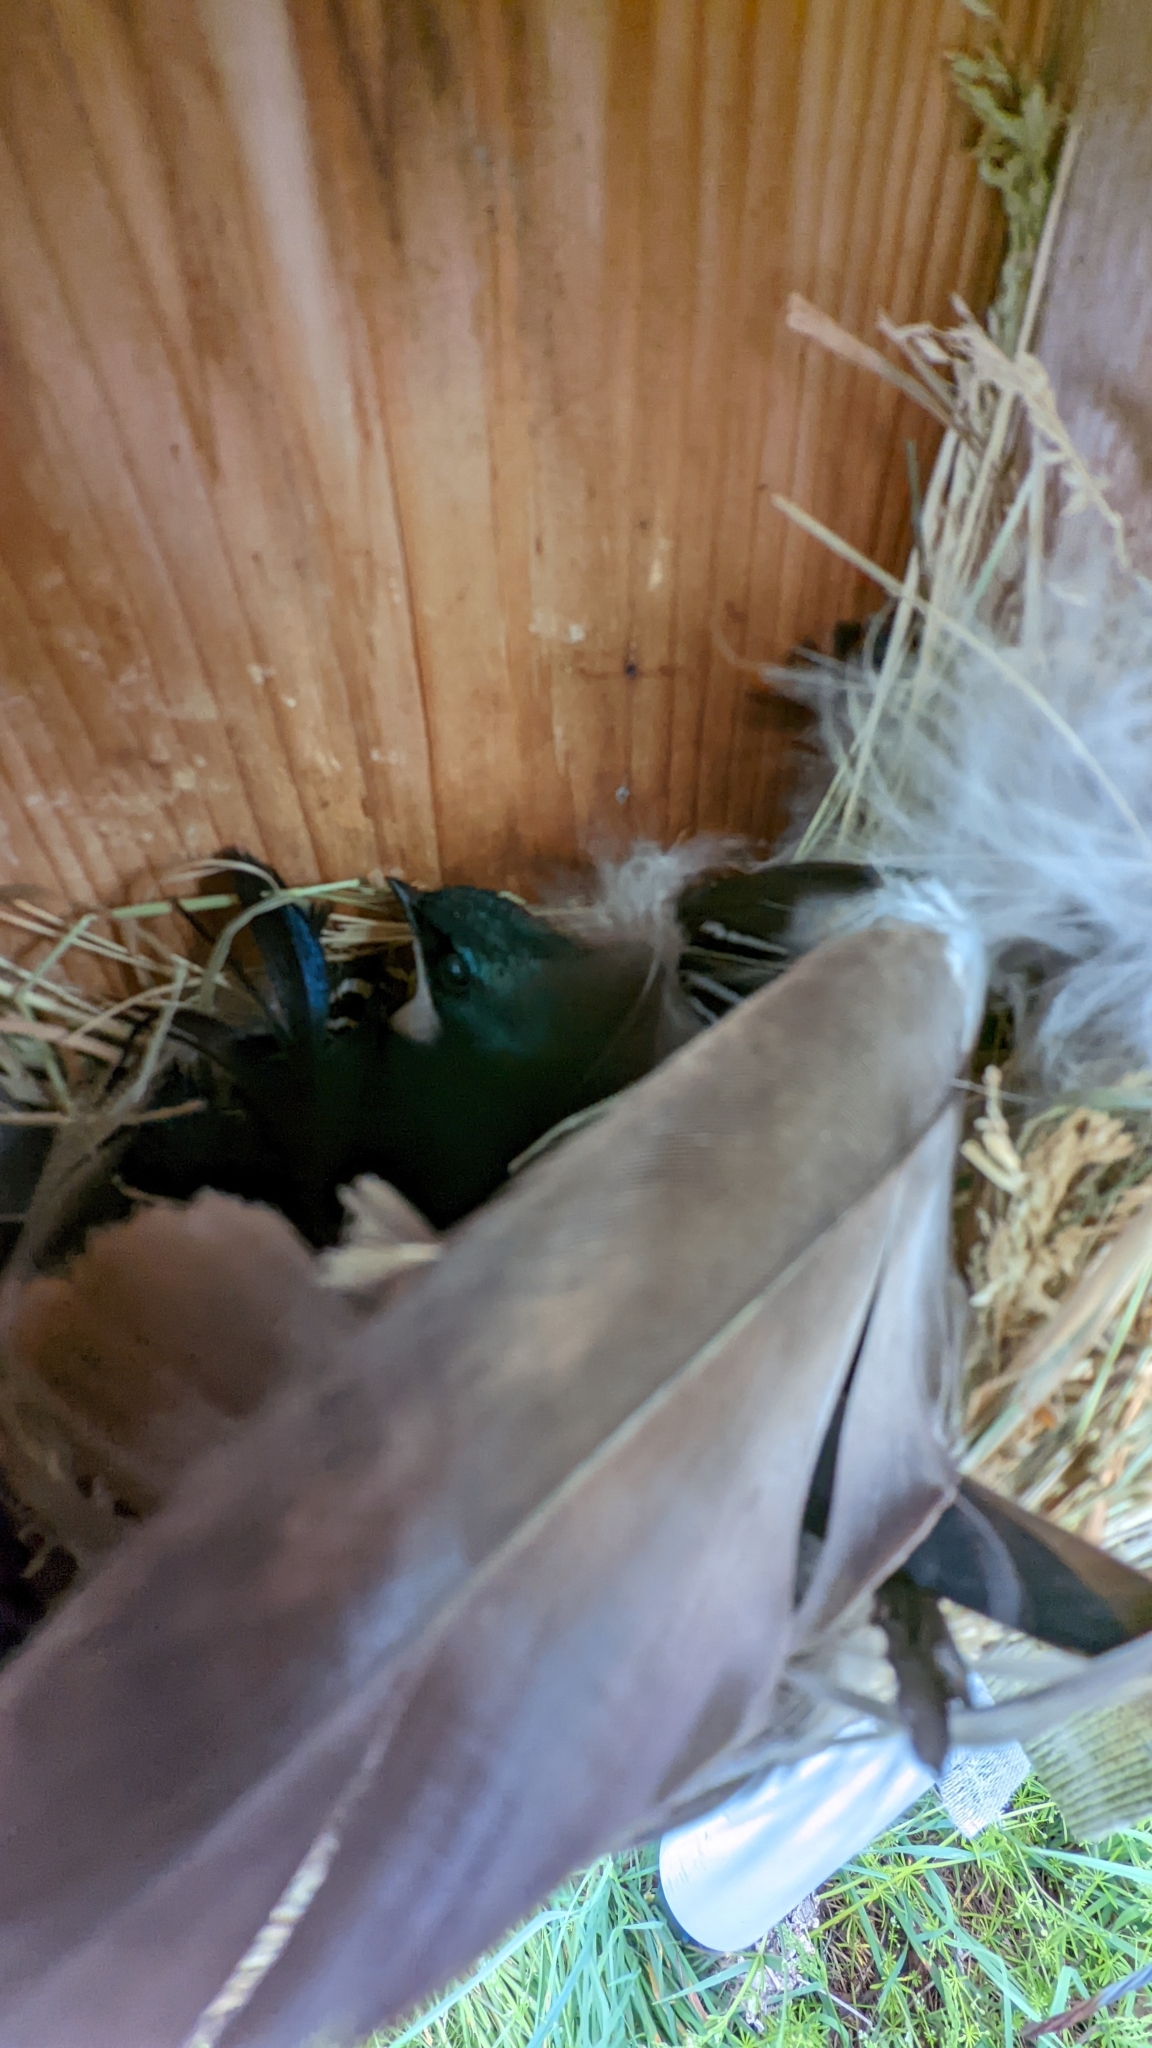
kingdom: Animalia
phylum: Chordata
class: Aves
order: Passeriformes
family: Hirundinidae
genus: Tachycineta
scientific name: Tachycineta bicolor
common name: Tree swallow
